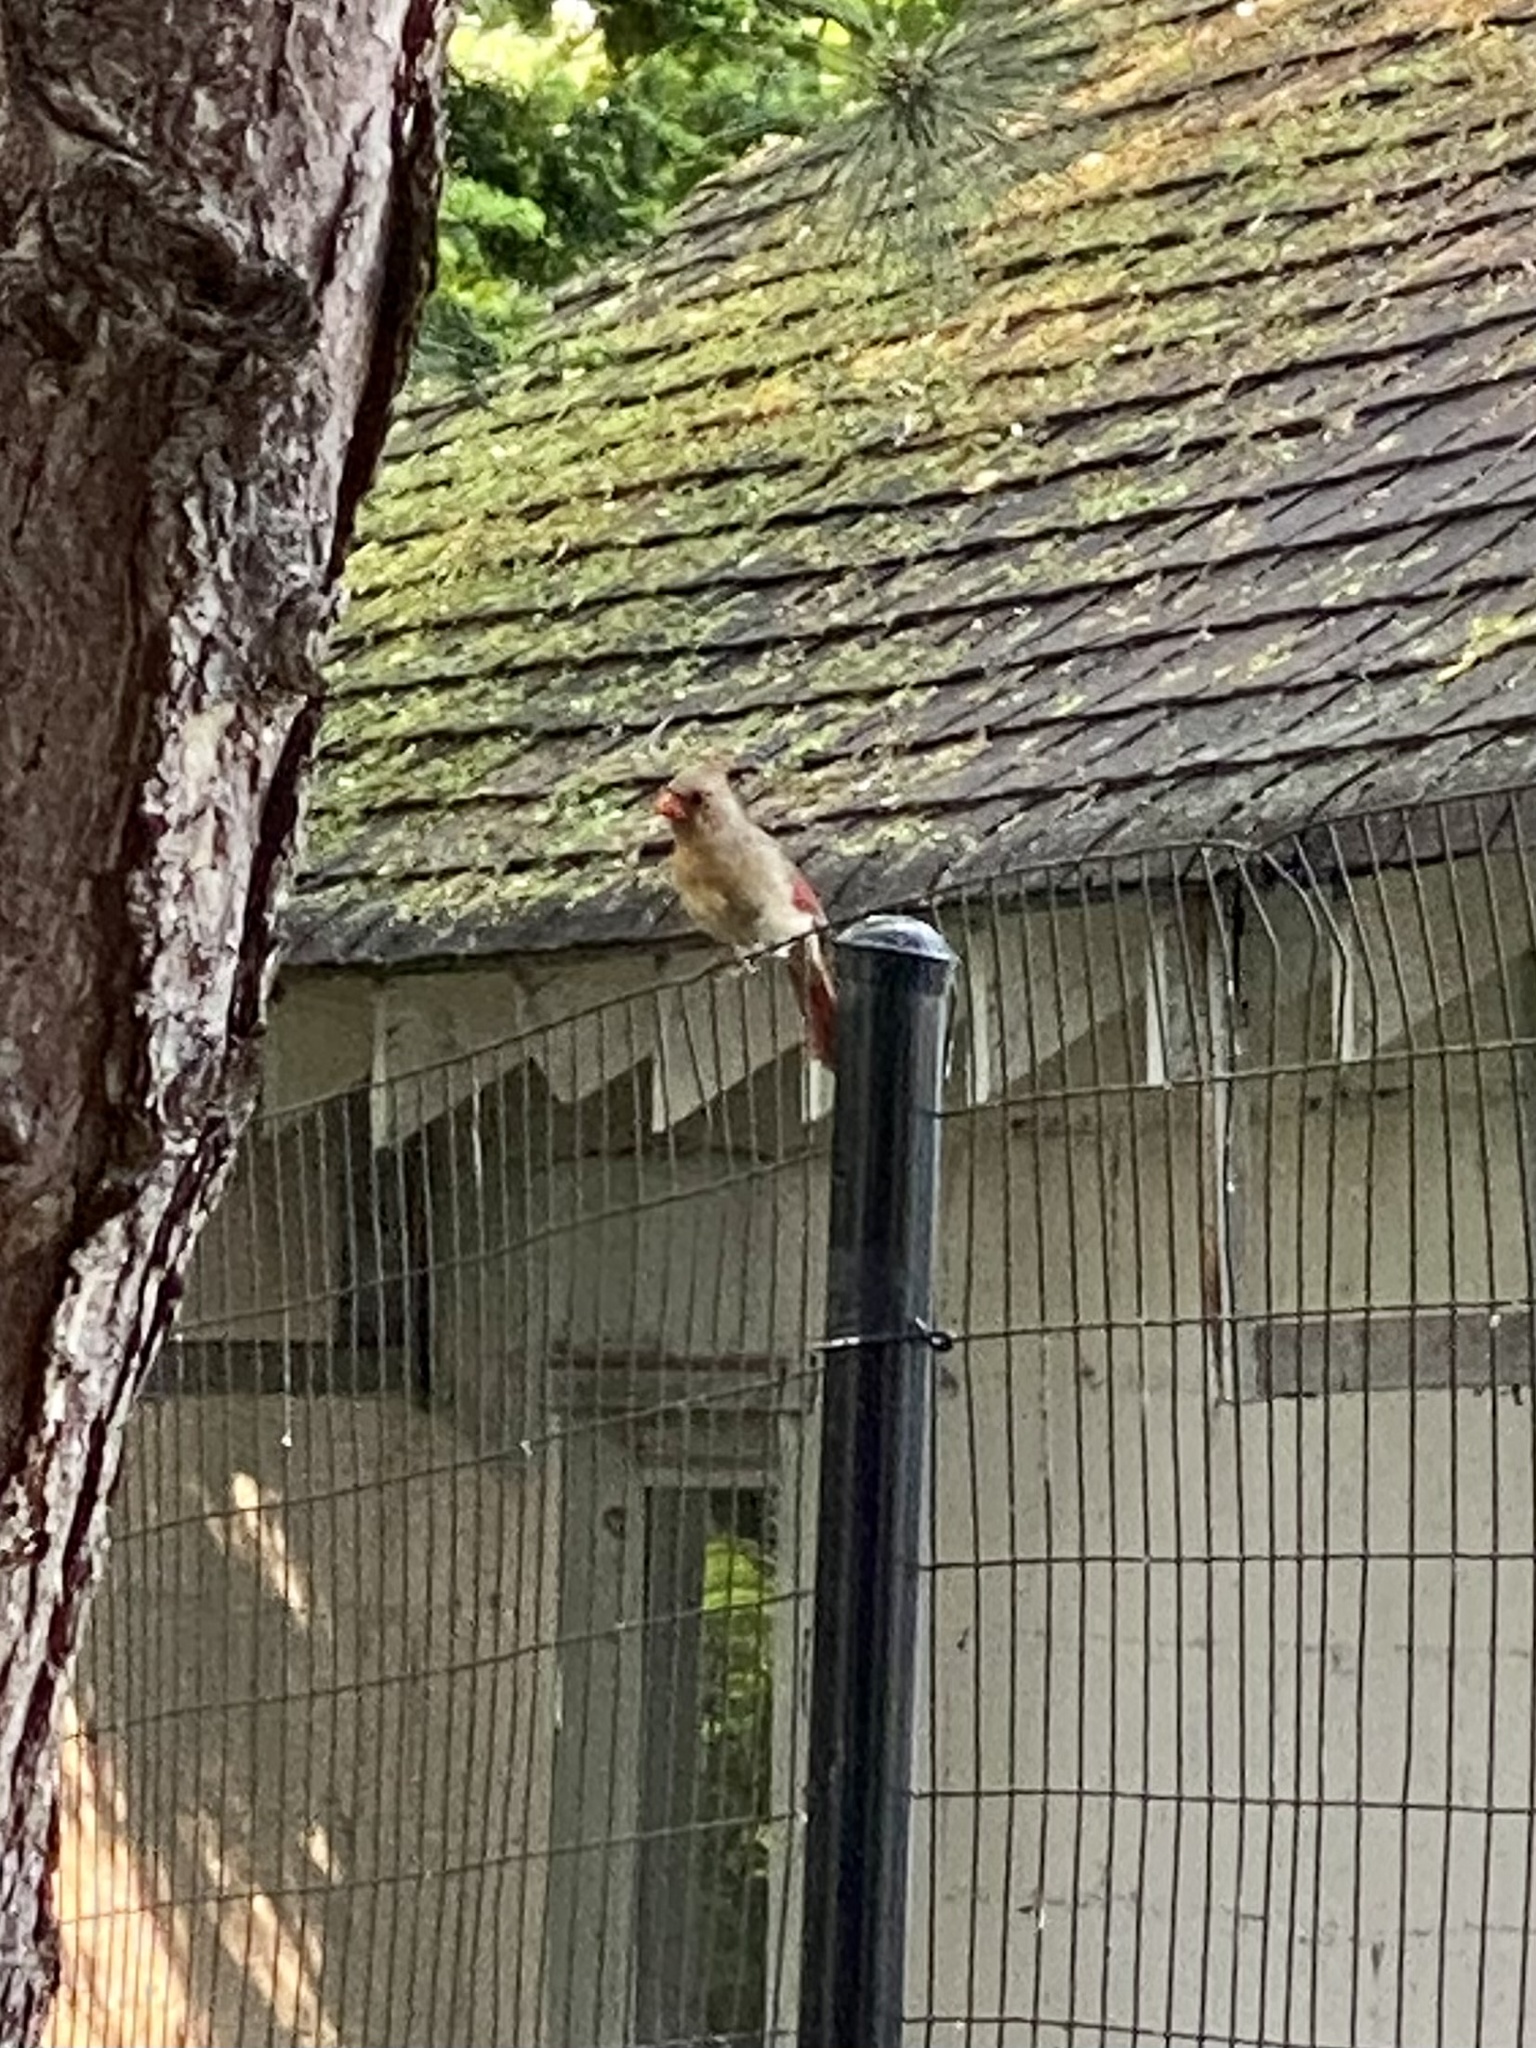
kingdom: Animalia
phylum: Chordata
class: Aves
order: Passeriformes
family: Cardinalidae
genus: Cardinalis
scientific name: Cardinalis cardinalis
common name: Northern cardinal
